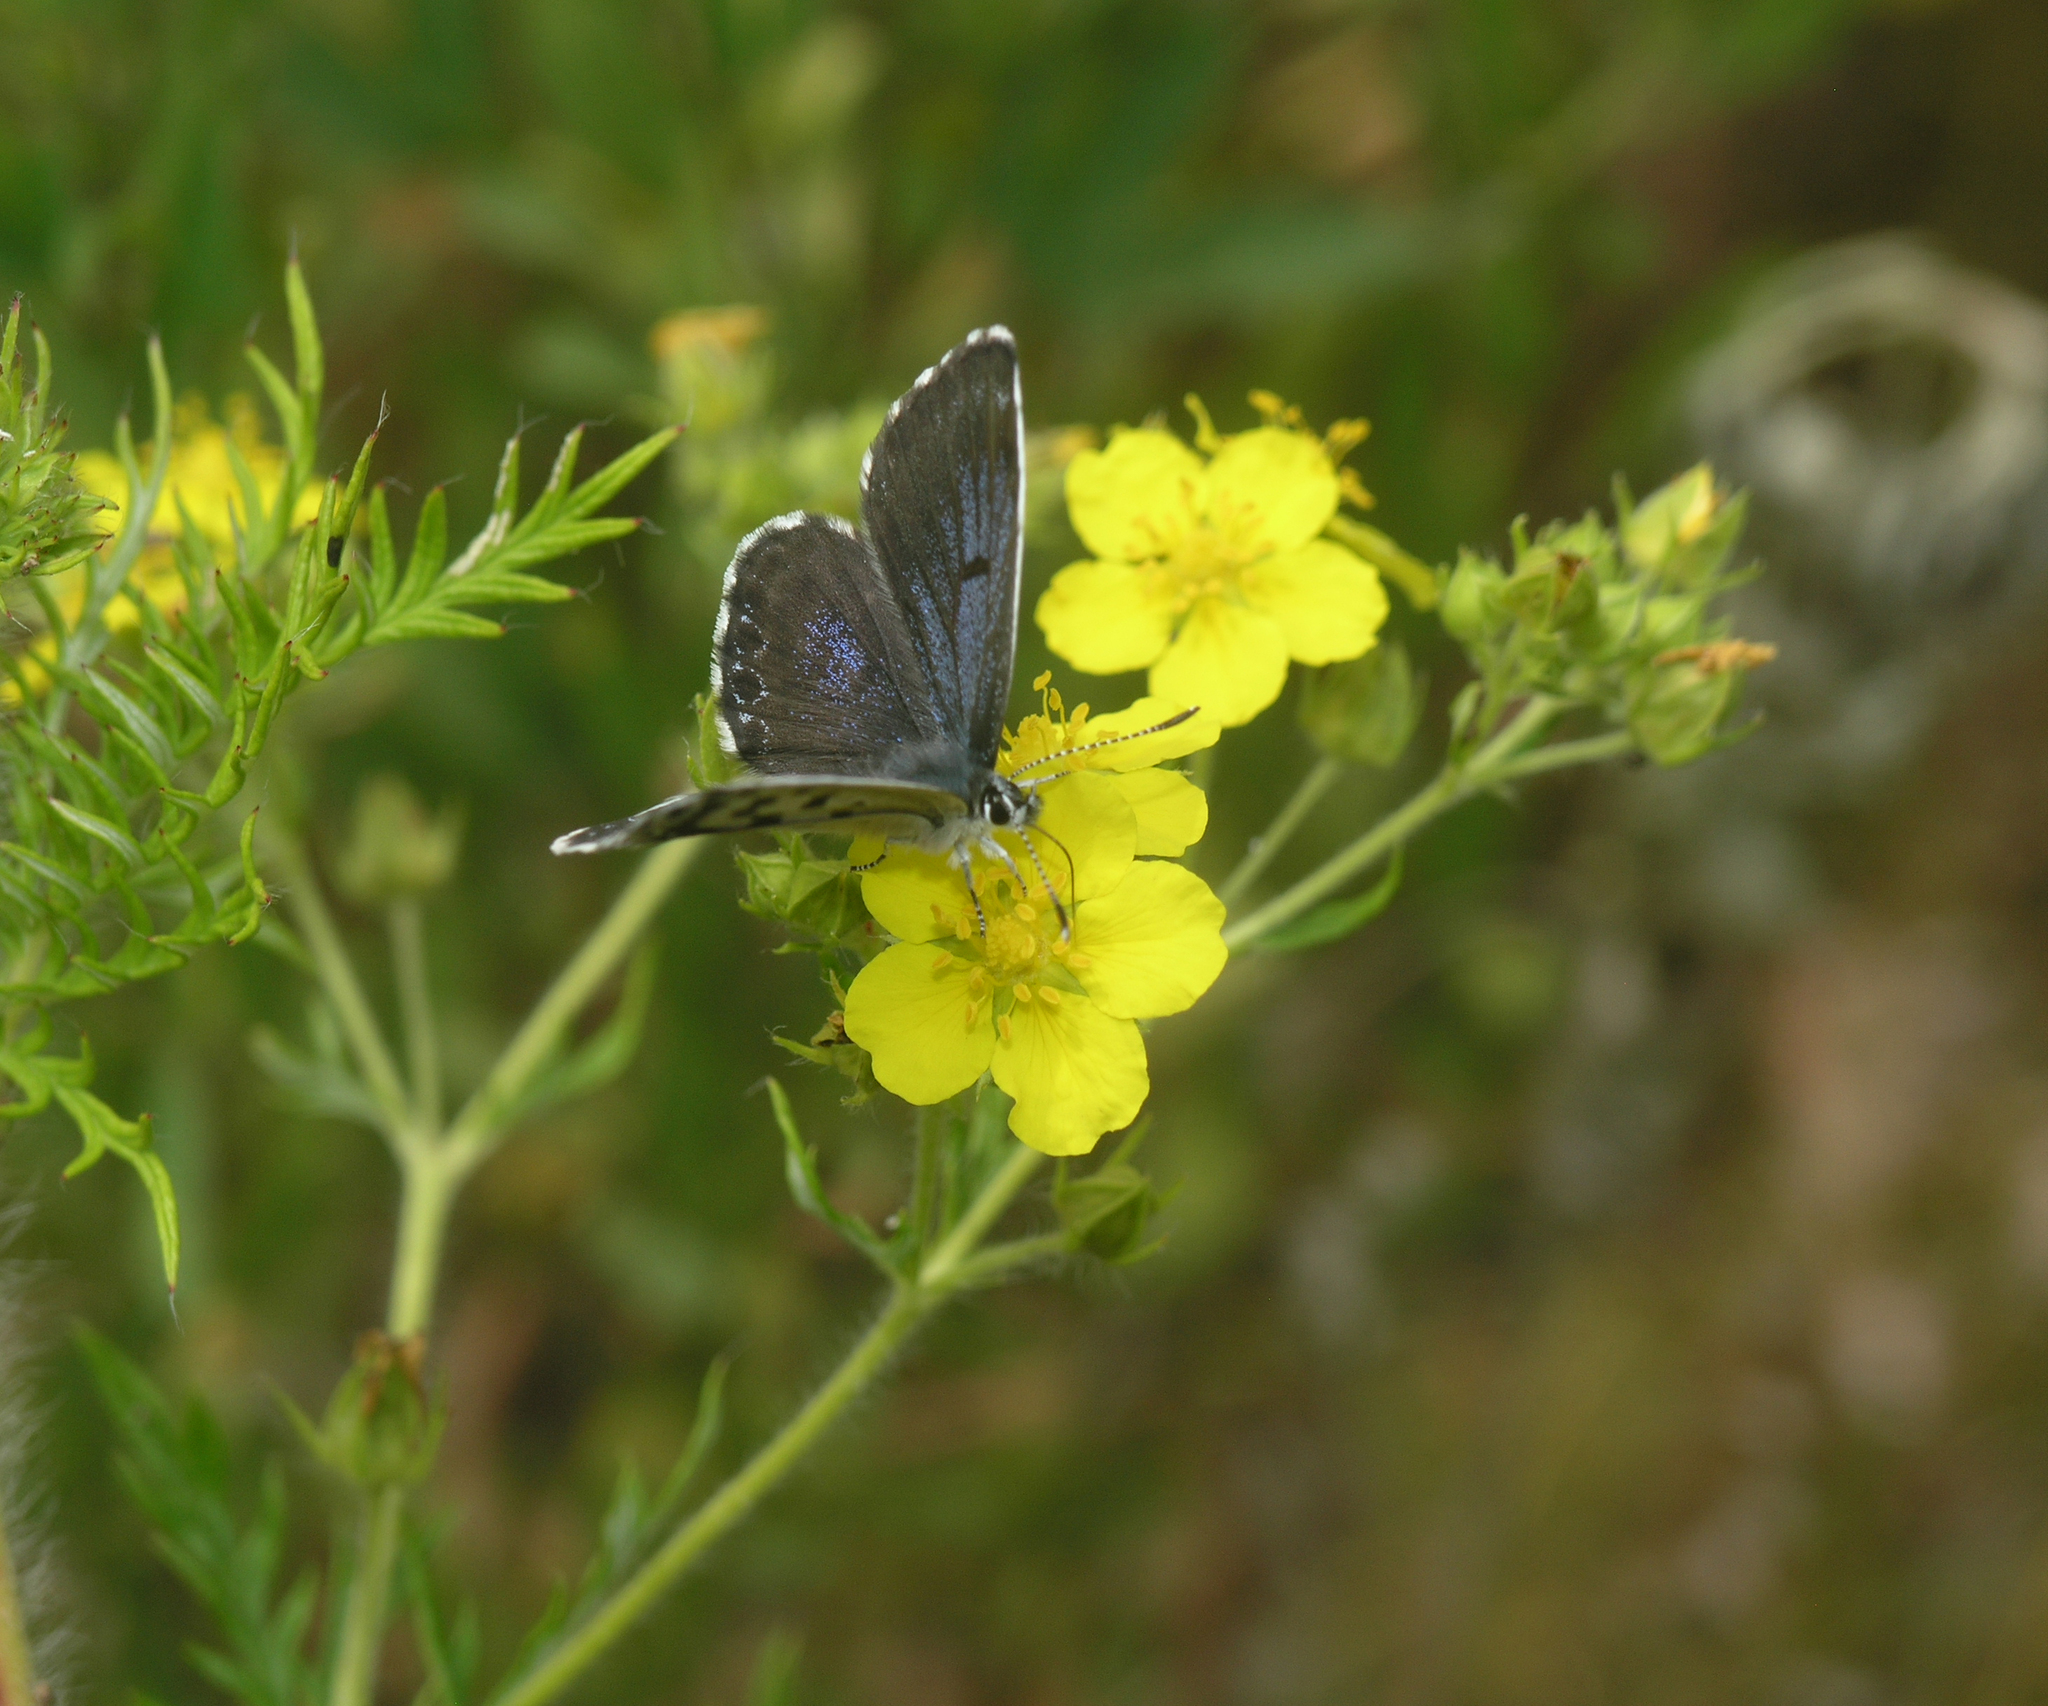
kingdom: Plantae
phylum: Tracheophyta
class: Magnoliopsida
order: Rosales
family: Rosaceae
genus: Potentilla
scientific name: Potentilla chinensis
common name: Chinese cinquefoil
